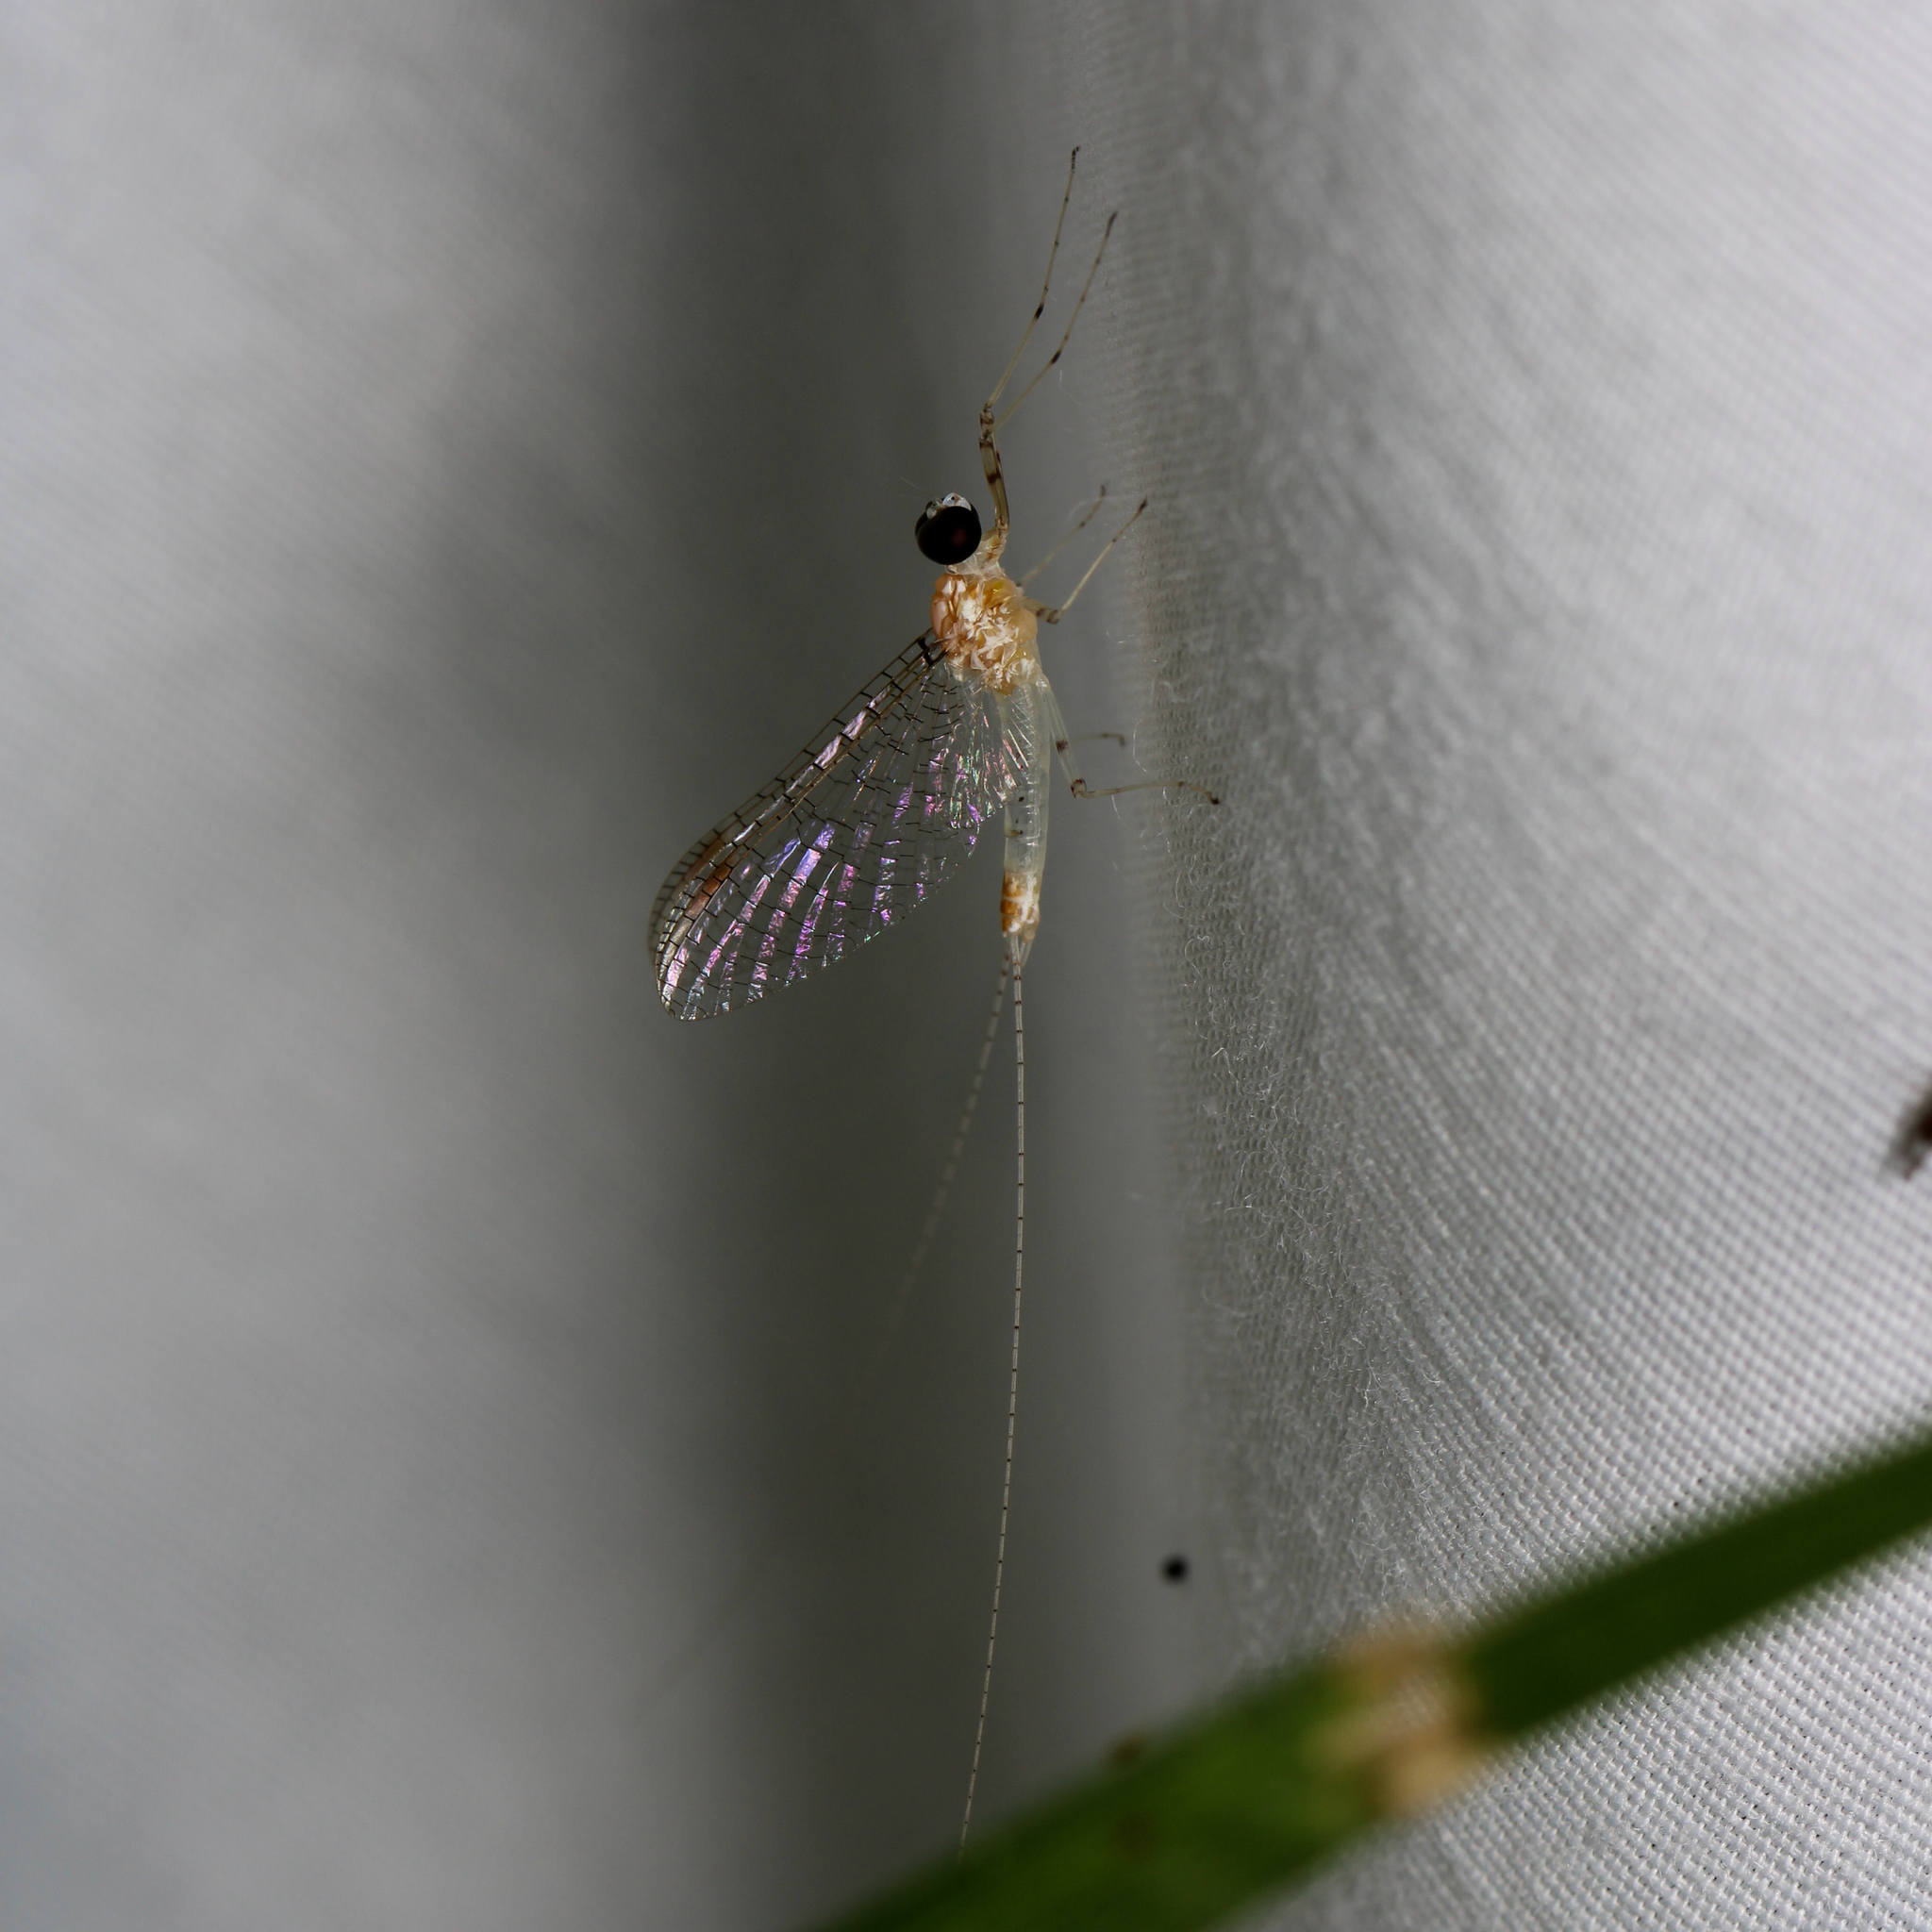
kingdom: Animalia
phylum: Arthropoda
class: Insecta
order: Ephemeroptera
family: Heptageniidae
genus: Maccaffertium
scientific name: Maccaffertium modestum
